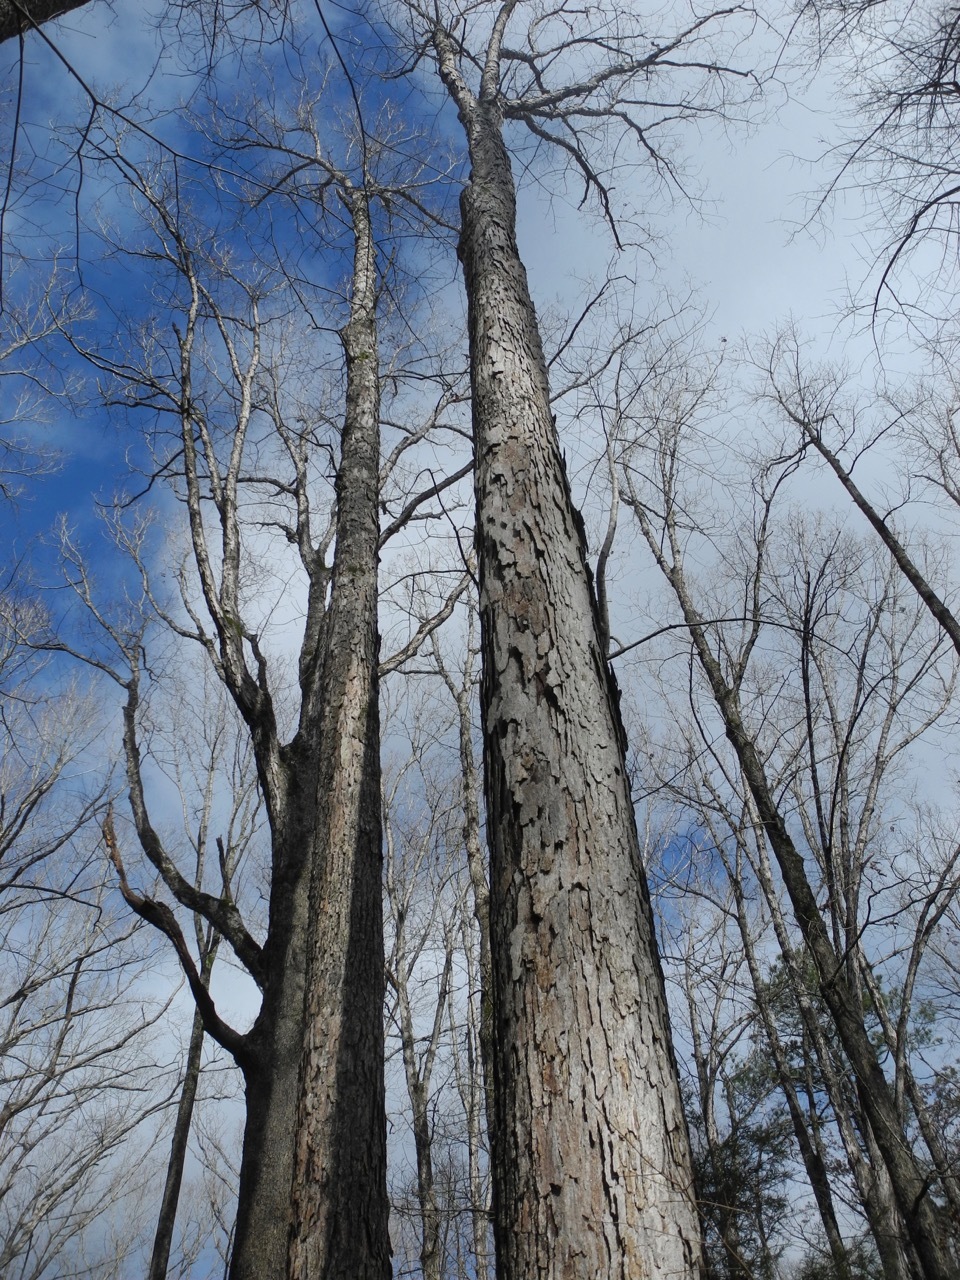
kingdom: Plantae
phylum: Tracheophyta
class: Magnoliopsida
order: Fagales
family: Fagaceae
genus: Quercus
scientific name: Quercus alba
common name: White oak
